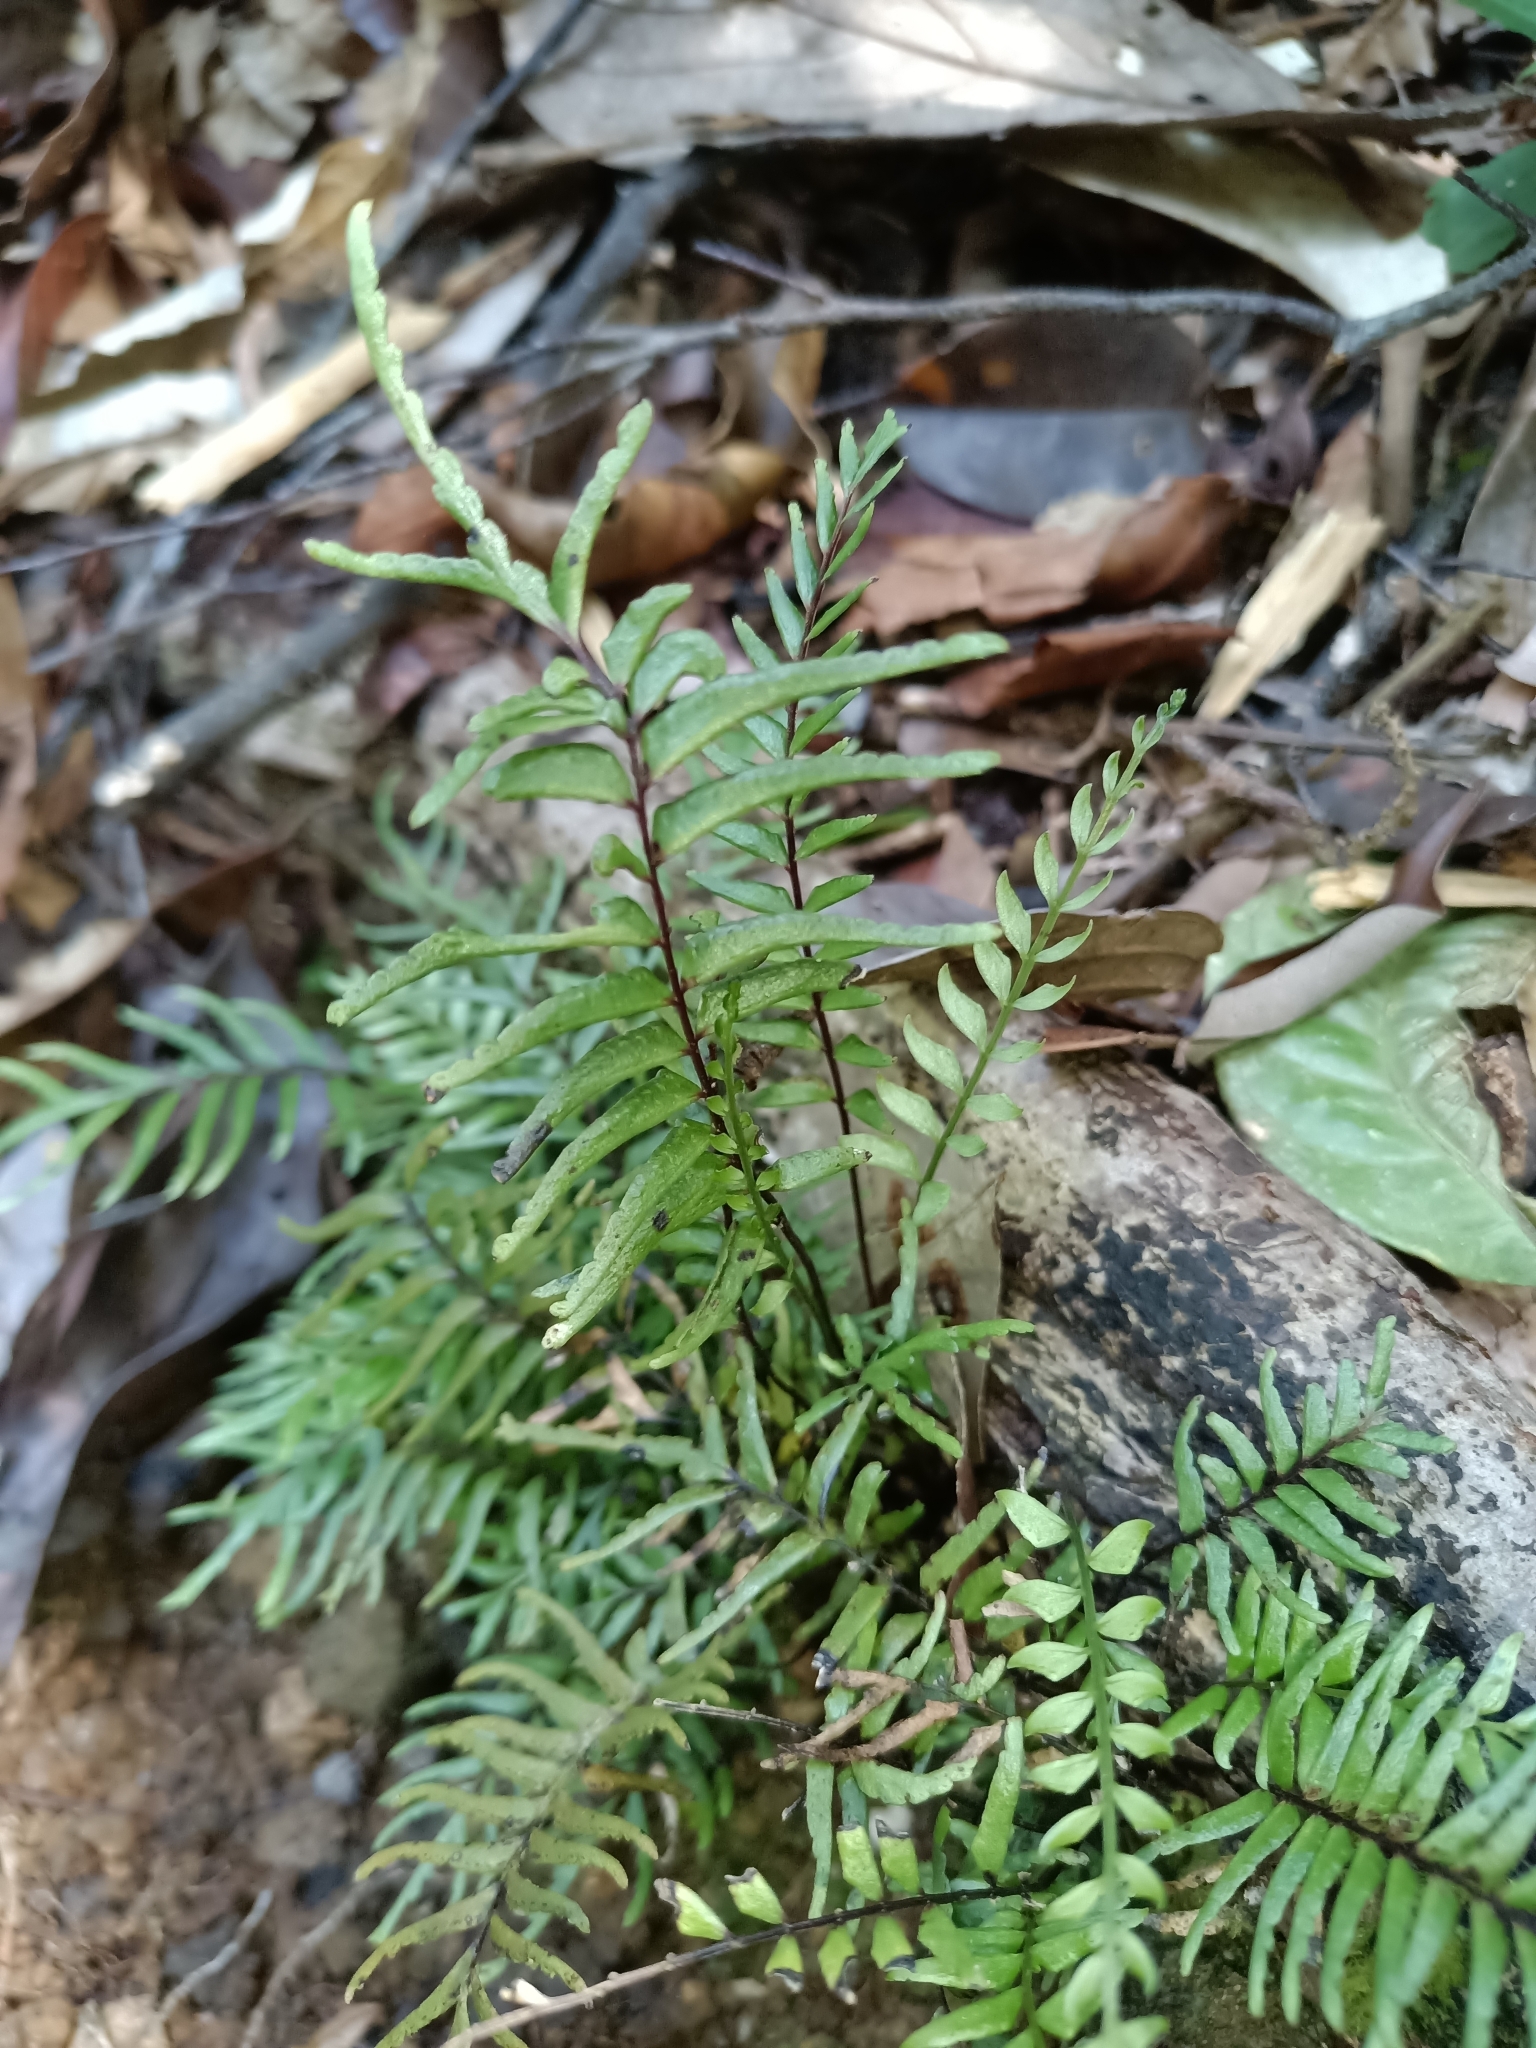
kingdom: Plantae
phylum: Tracheophyta
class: Polypodiopsida
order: Polypodiales
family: Lindsaeaceae
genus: Lindsaea
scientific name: Lindsaea dubia
